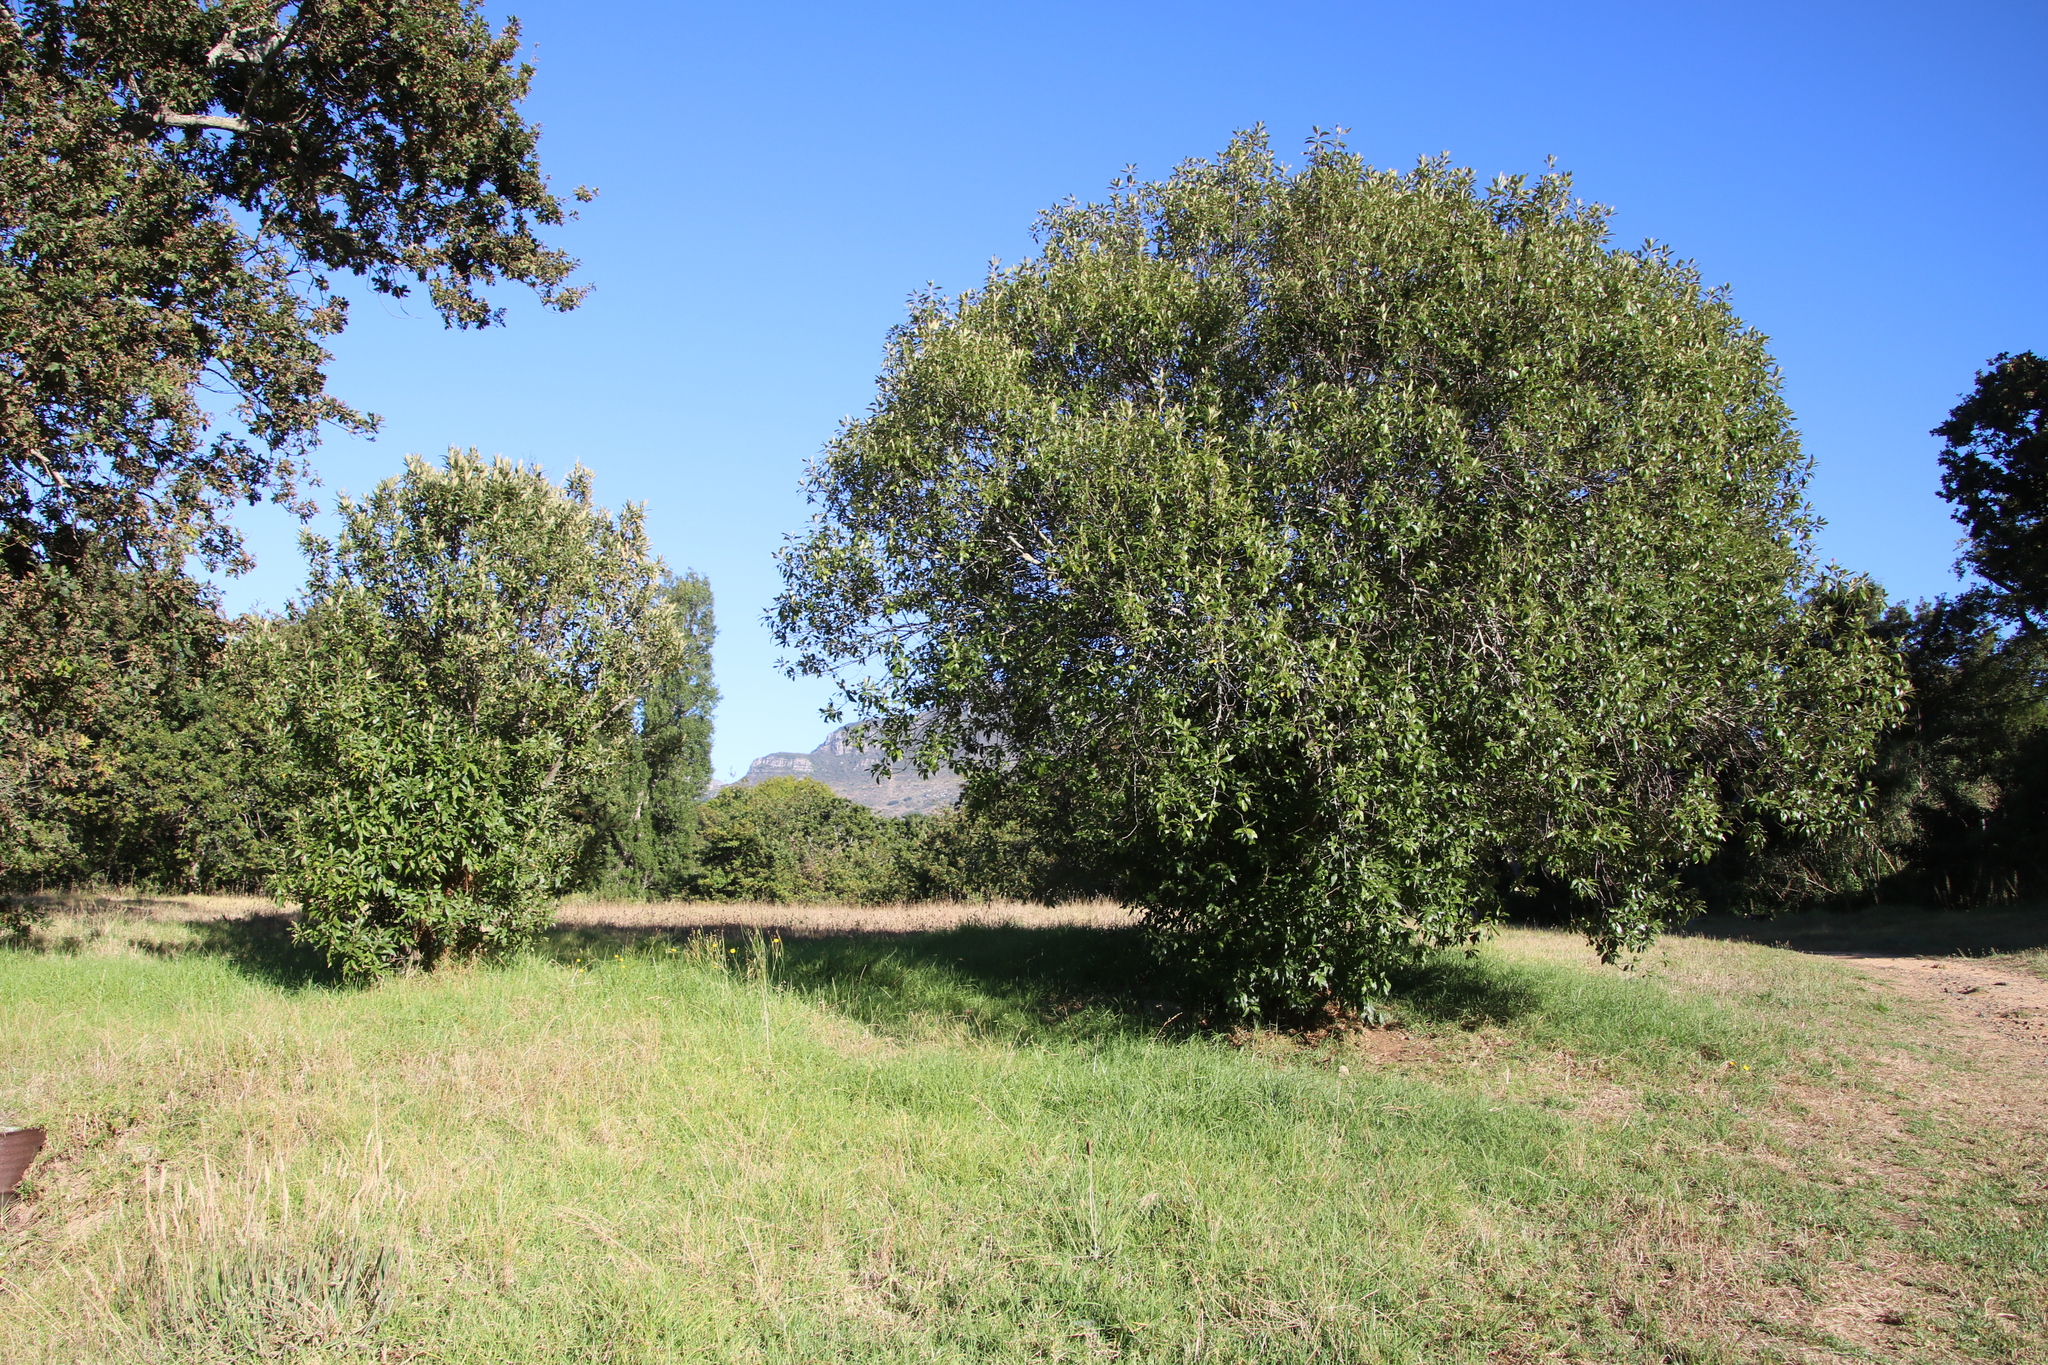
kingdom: Plantae
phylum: Tracheophyta
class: Magnoliopsida
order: Malpighiales
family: Achariaceae
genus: Kiggelaria
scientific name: Kiggelaria africana
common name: Wild peach
